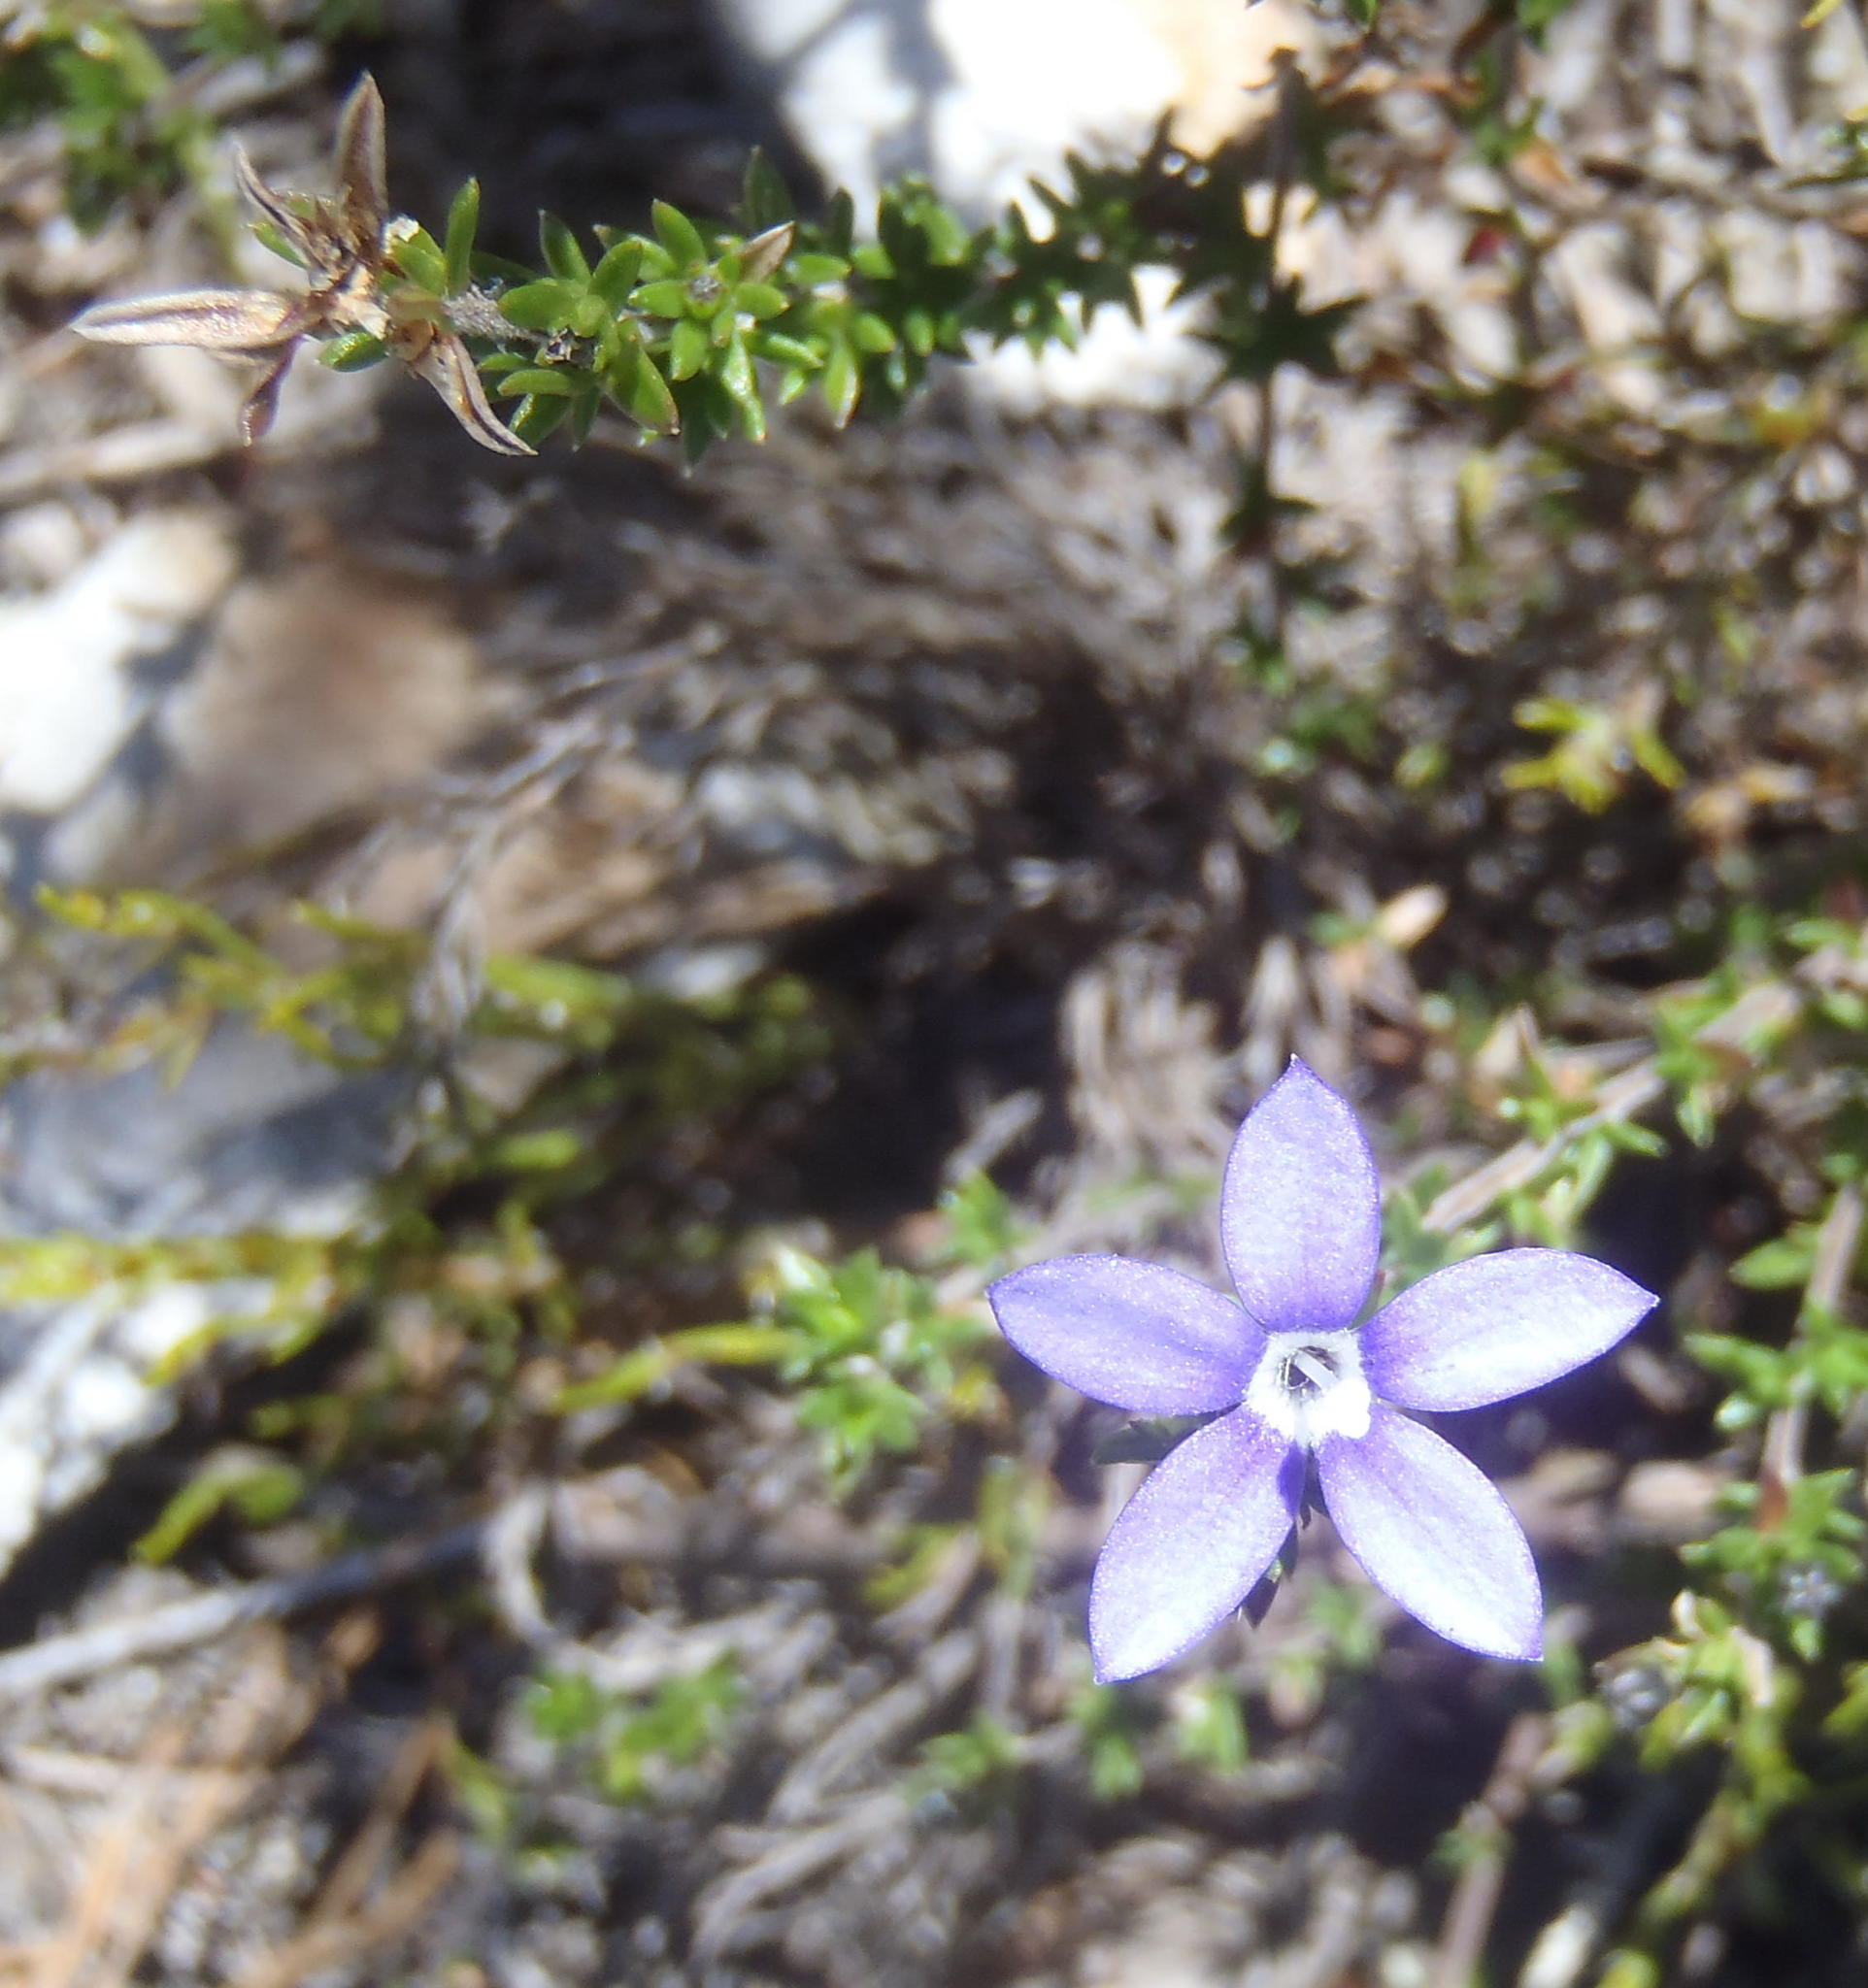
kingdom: Plantae
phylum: Tracheophyta
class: Magnoliopsida
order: Asterales
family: Campanulaceae
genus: Theilera
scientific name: Theilera guthriei
